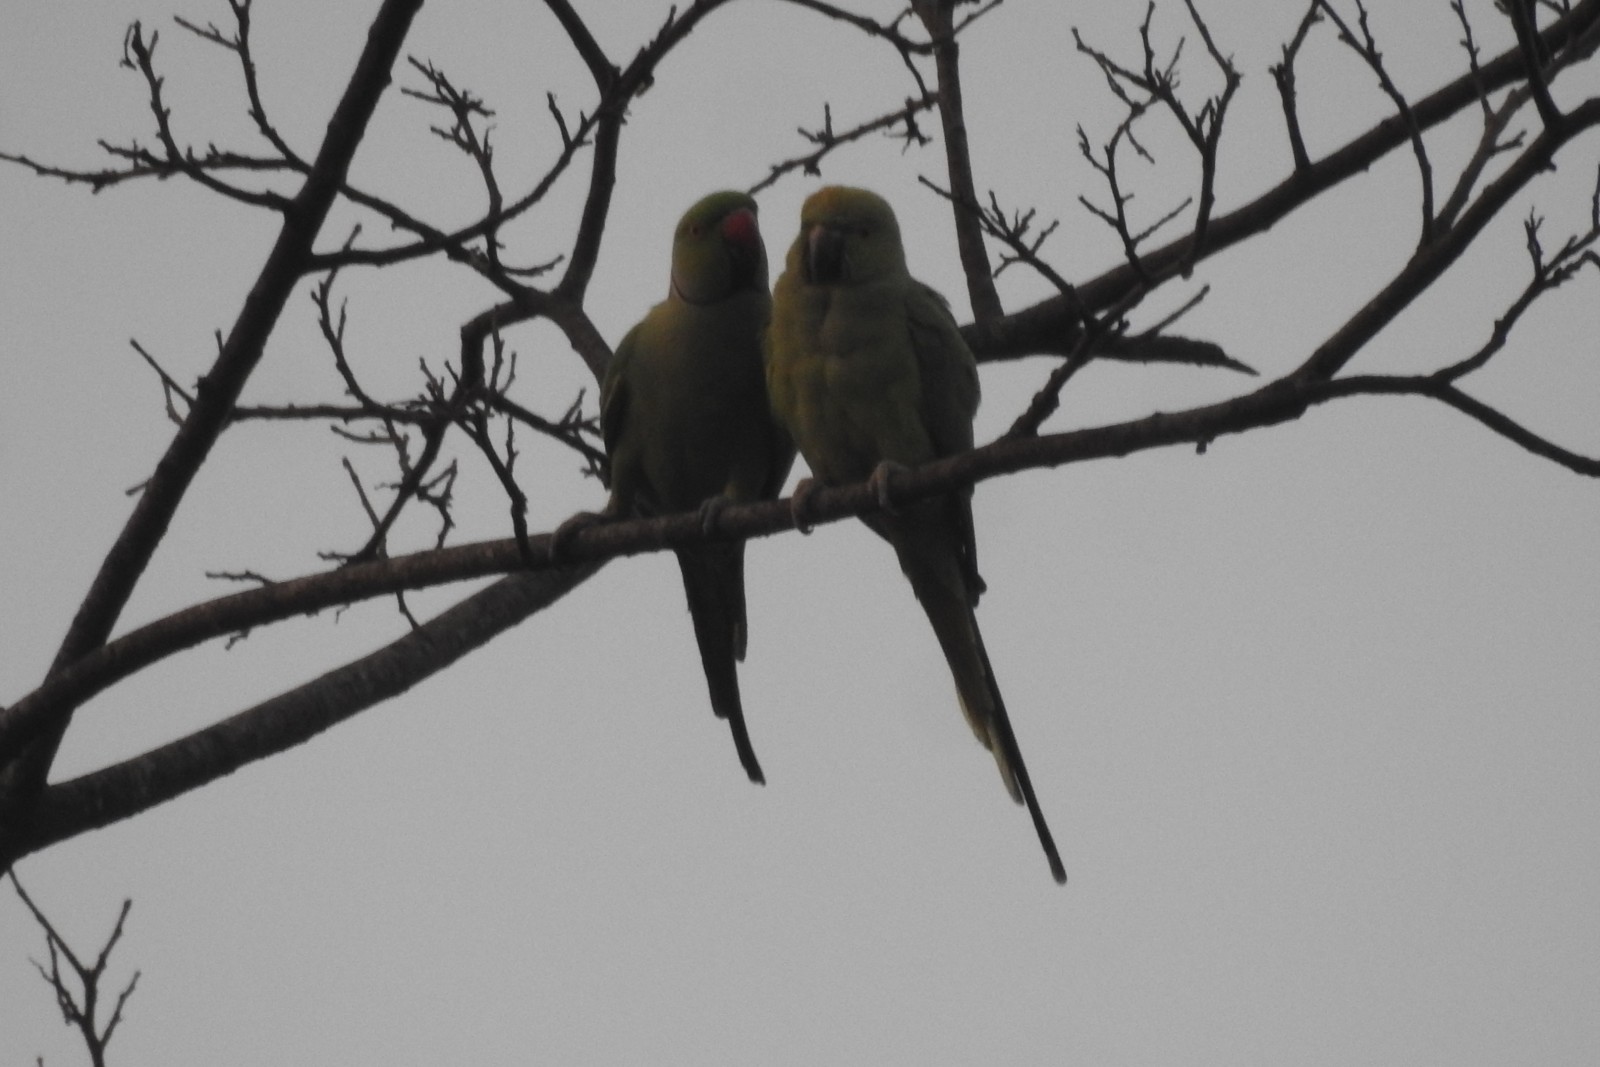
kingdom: Animalia
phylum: Chordata
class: Aves
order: Psittaciformes
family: Psittacidae
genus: Psittacula
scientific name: Psittacula krameri
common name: Rose-ringed parakeet
